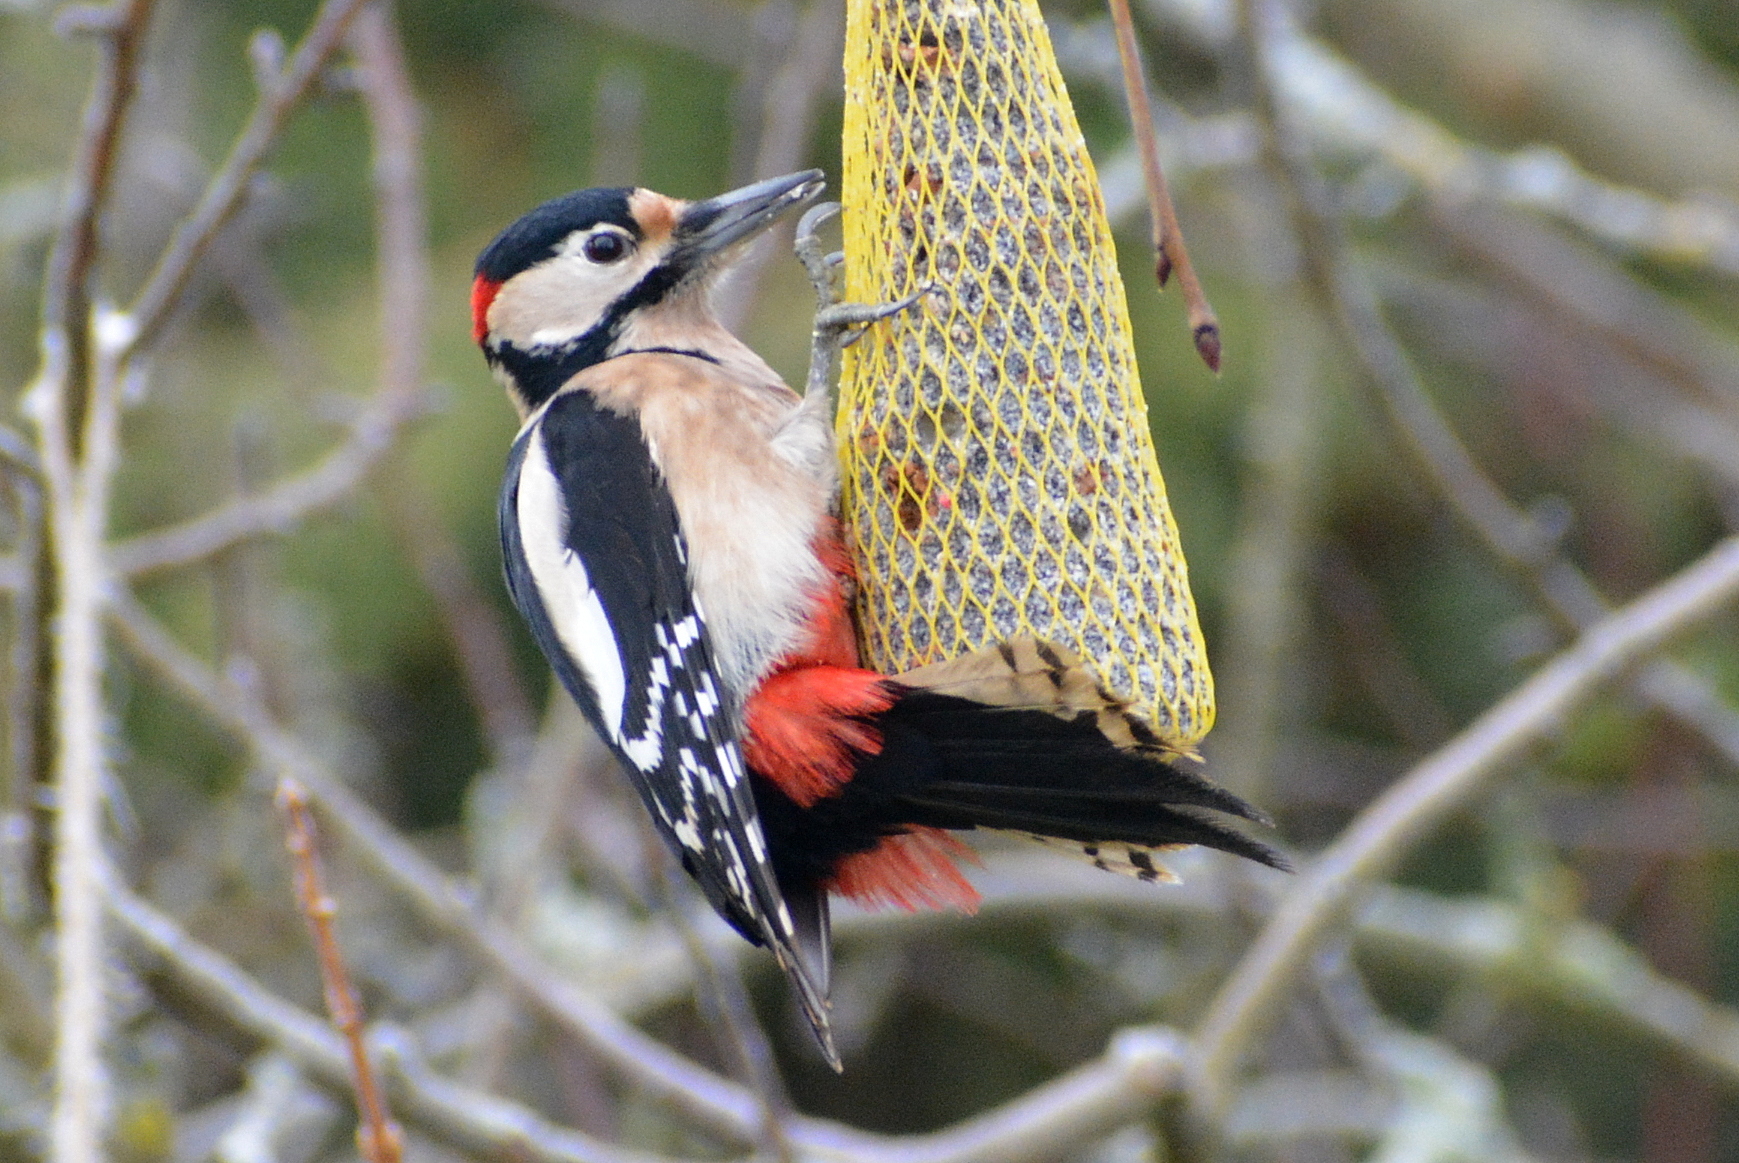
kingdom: Animalia
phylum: Chordata
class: Aves
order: Piciformes
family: Picidae
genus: Dendrocopos
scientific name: Dendrocopos major
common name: Great spotted woodpecker
